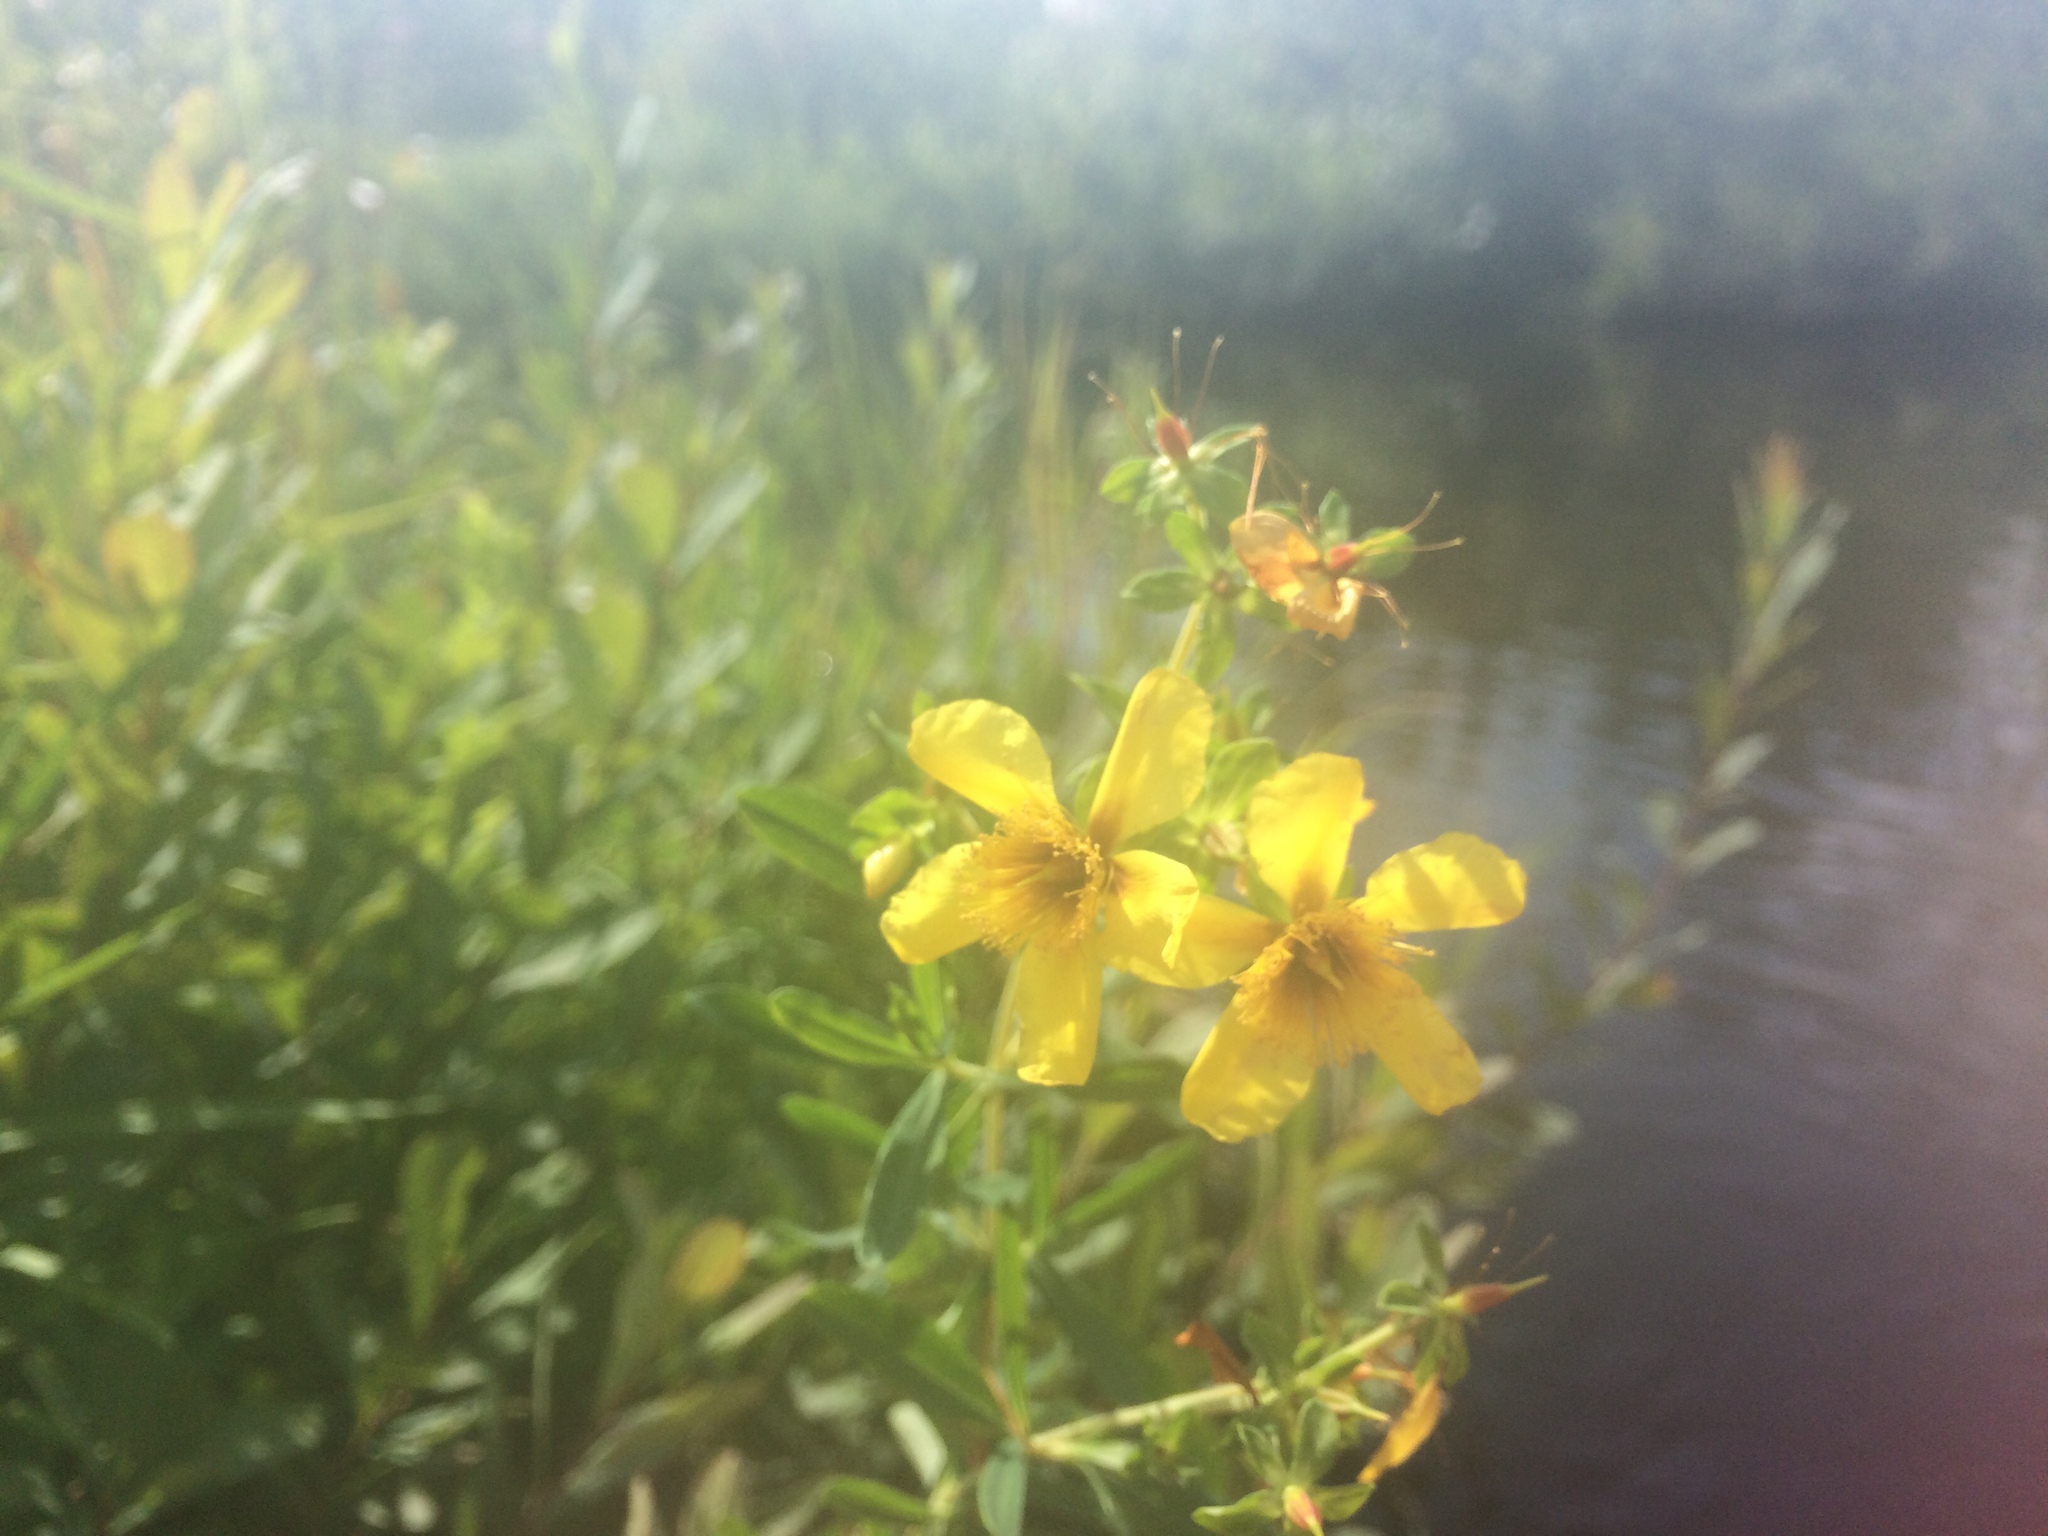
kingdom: Plantae
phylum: Tracheophyta
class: Magnoliopsida
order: Malpighiales
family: Hypericaceae
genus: Hypericum
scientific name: Hypericum kalmianum
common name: Kalm's st. john's-wort
